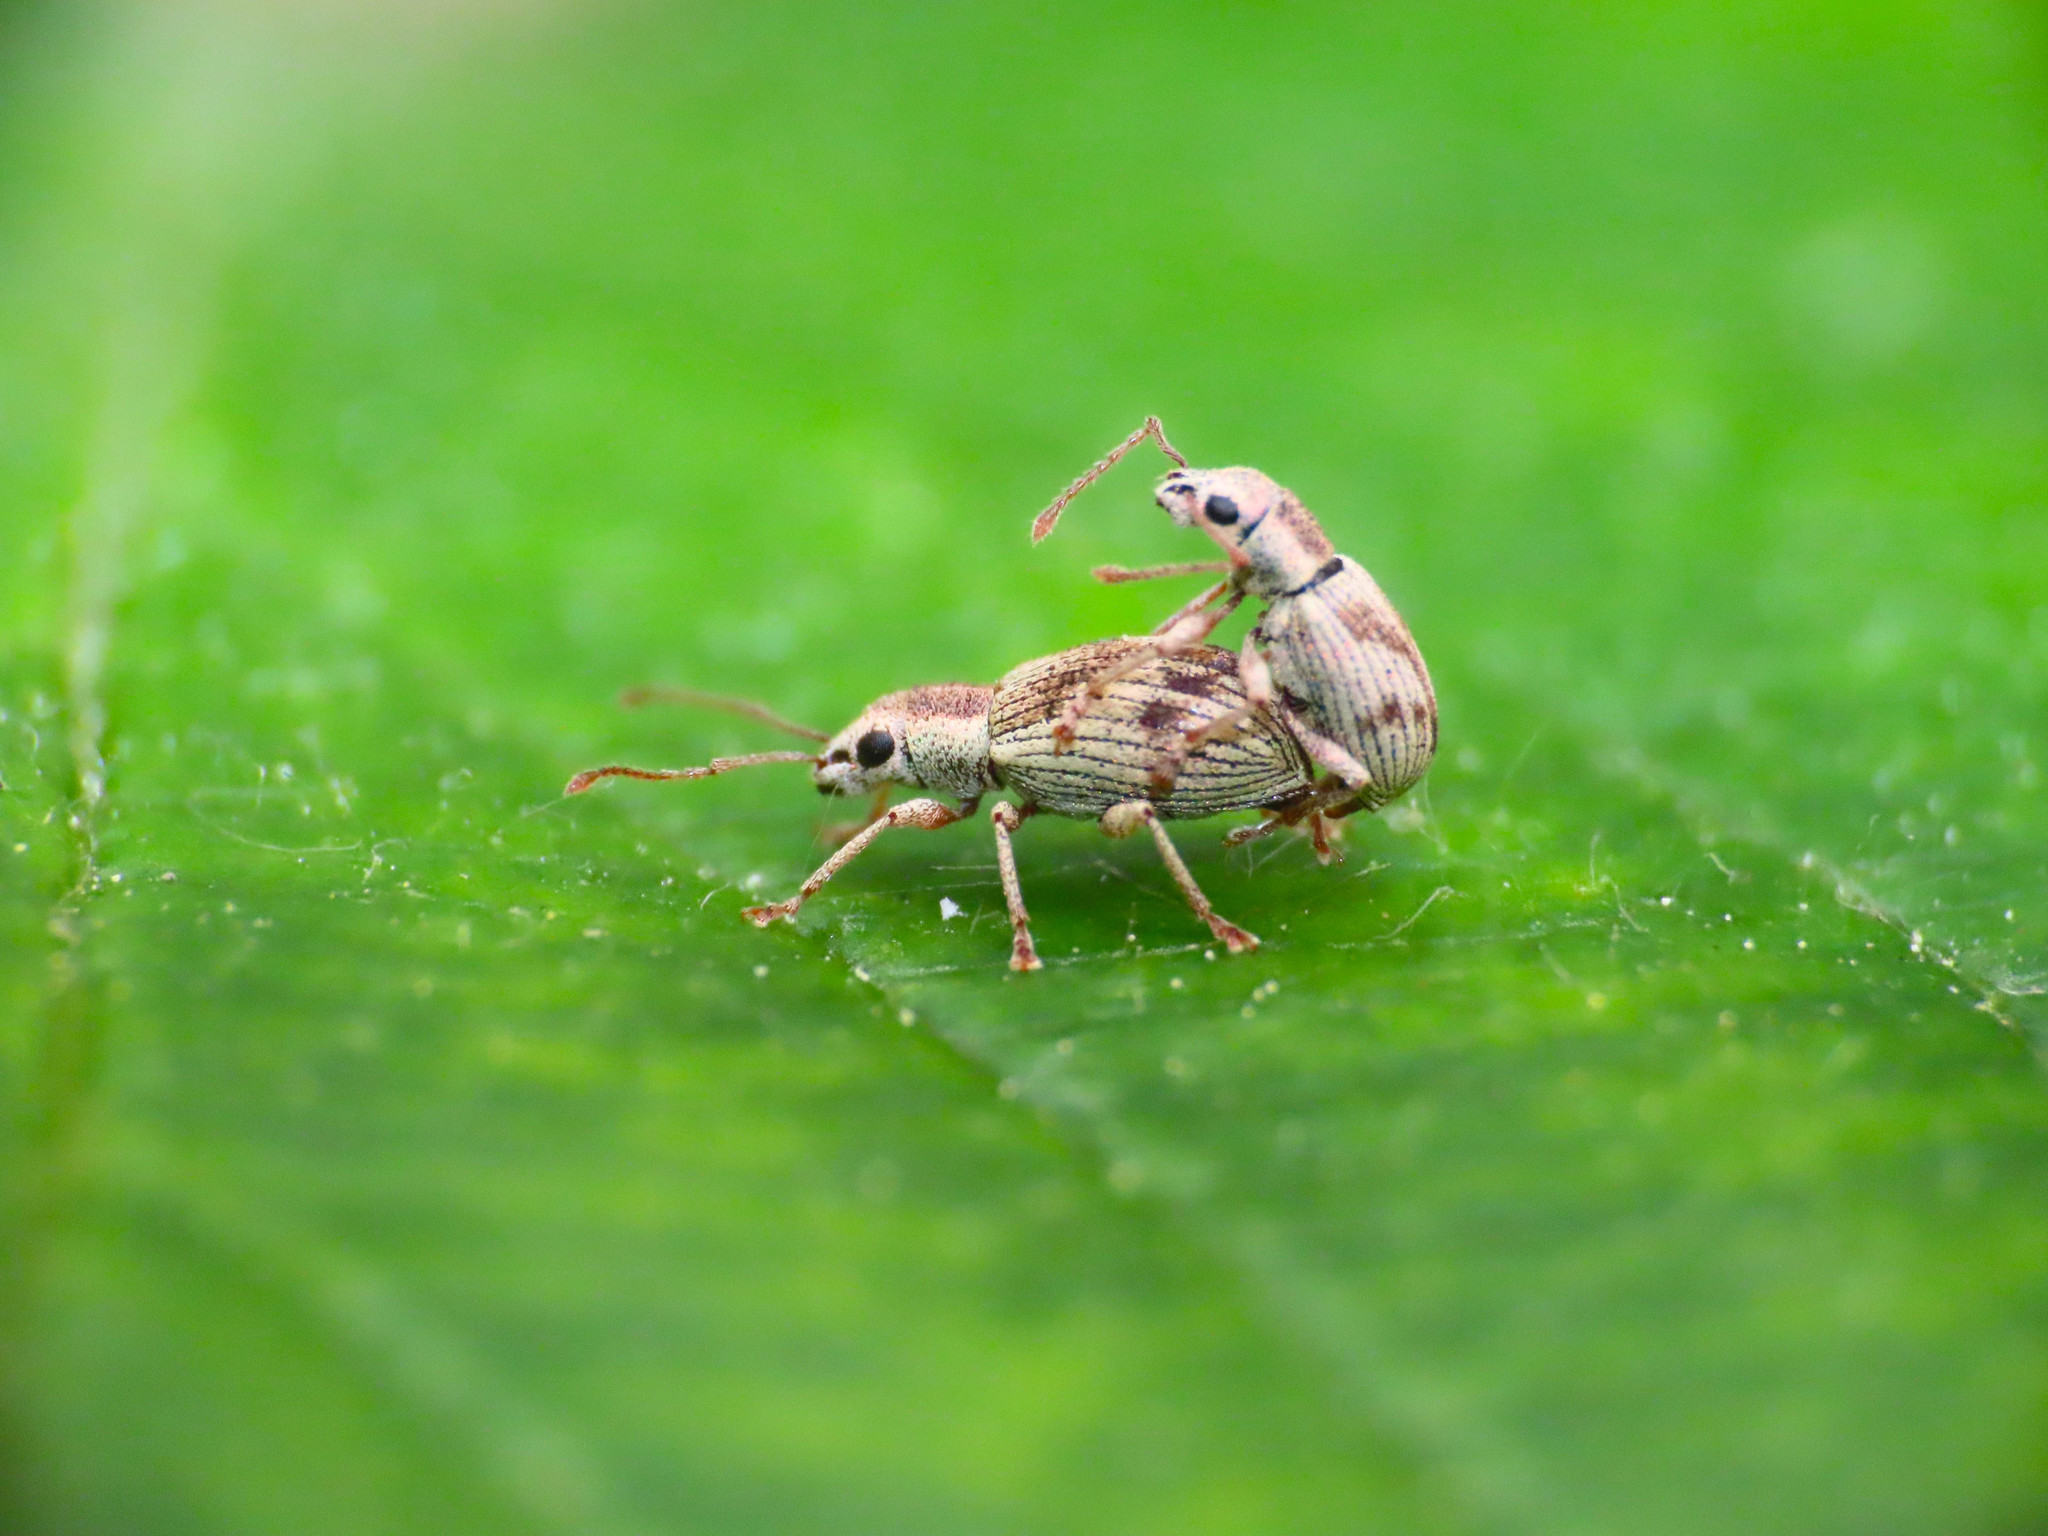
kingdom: Animalia
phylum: Arthropoda
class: Insecta
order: Coleoptera
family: Curculionidae
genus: Pseudomyllocerus
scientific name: Pseudomyllocerus neapolitanus
